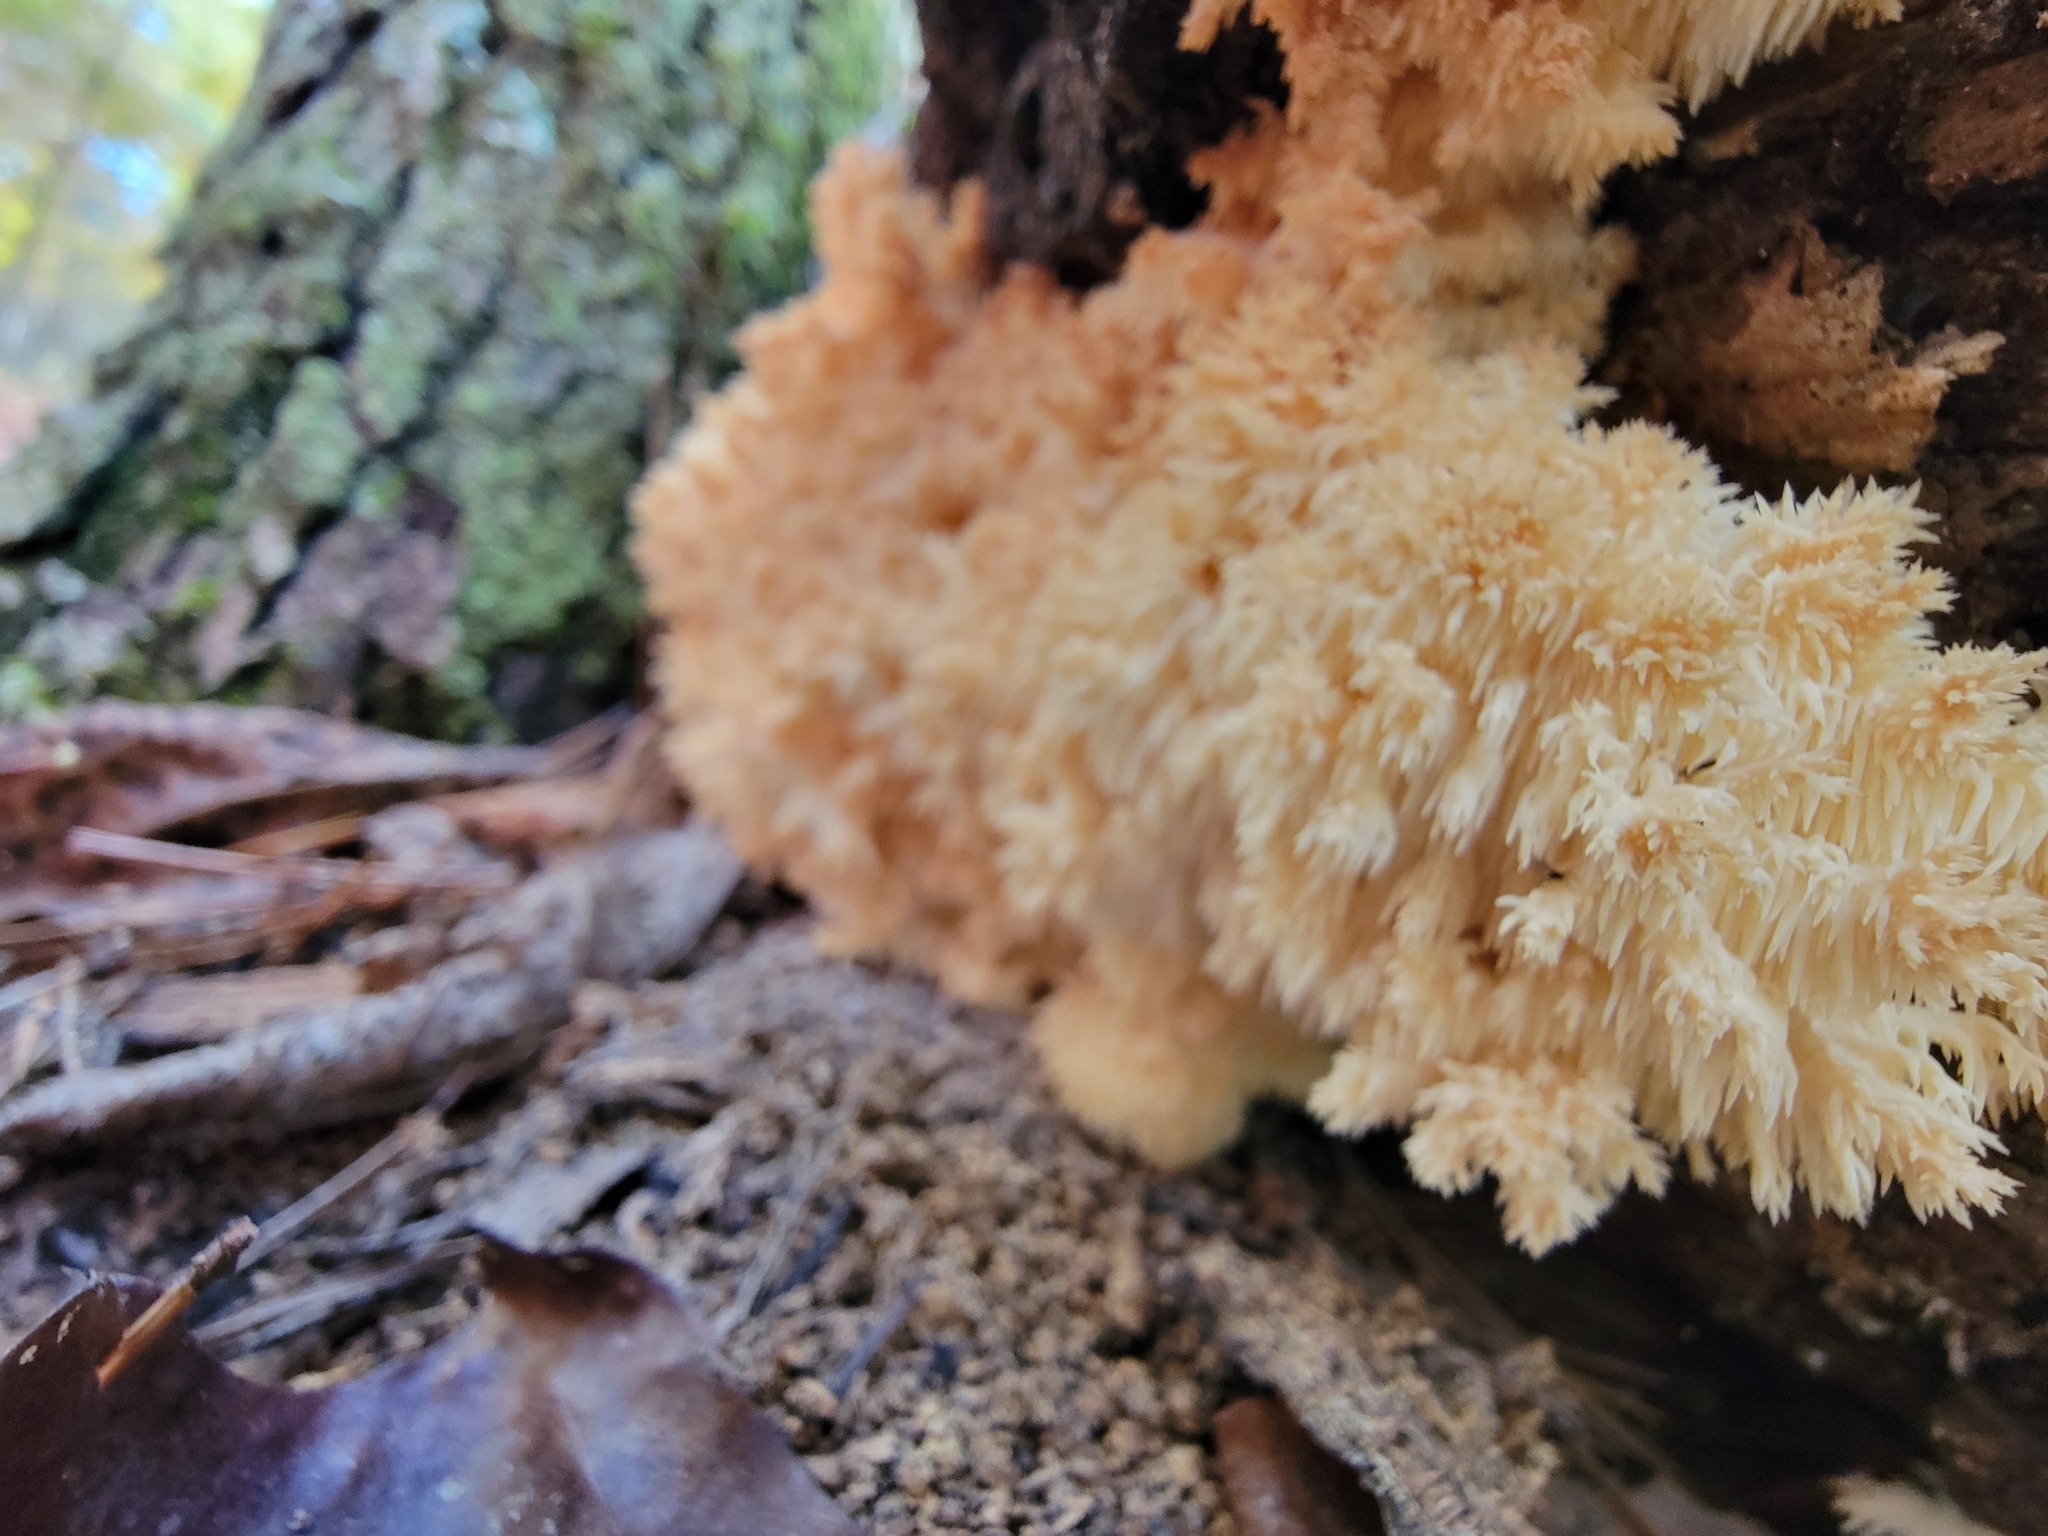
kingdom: Fungi
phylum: Basidiomycota
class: Agaricomycetes
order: Russulales
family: Hericiaceae
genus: Hericium
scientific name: Hericium coralloides
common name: Coral tooth
